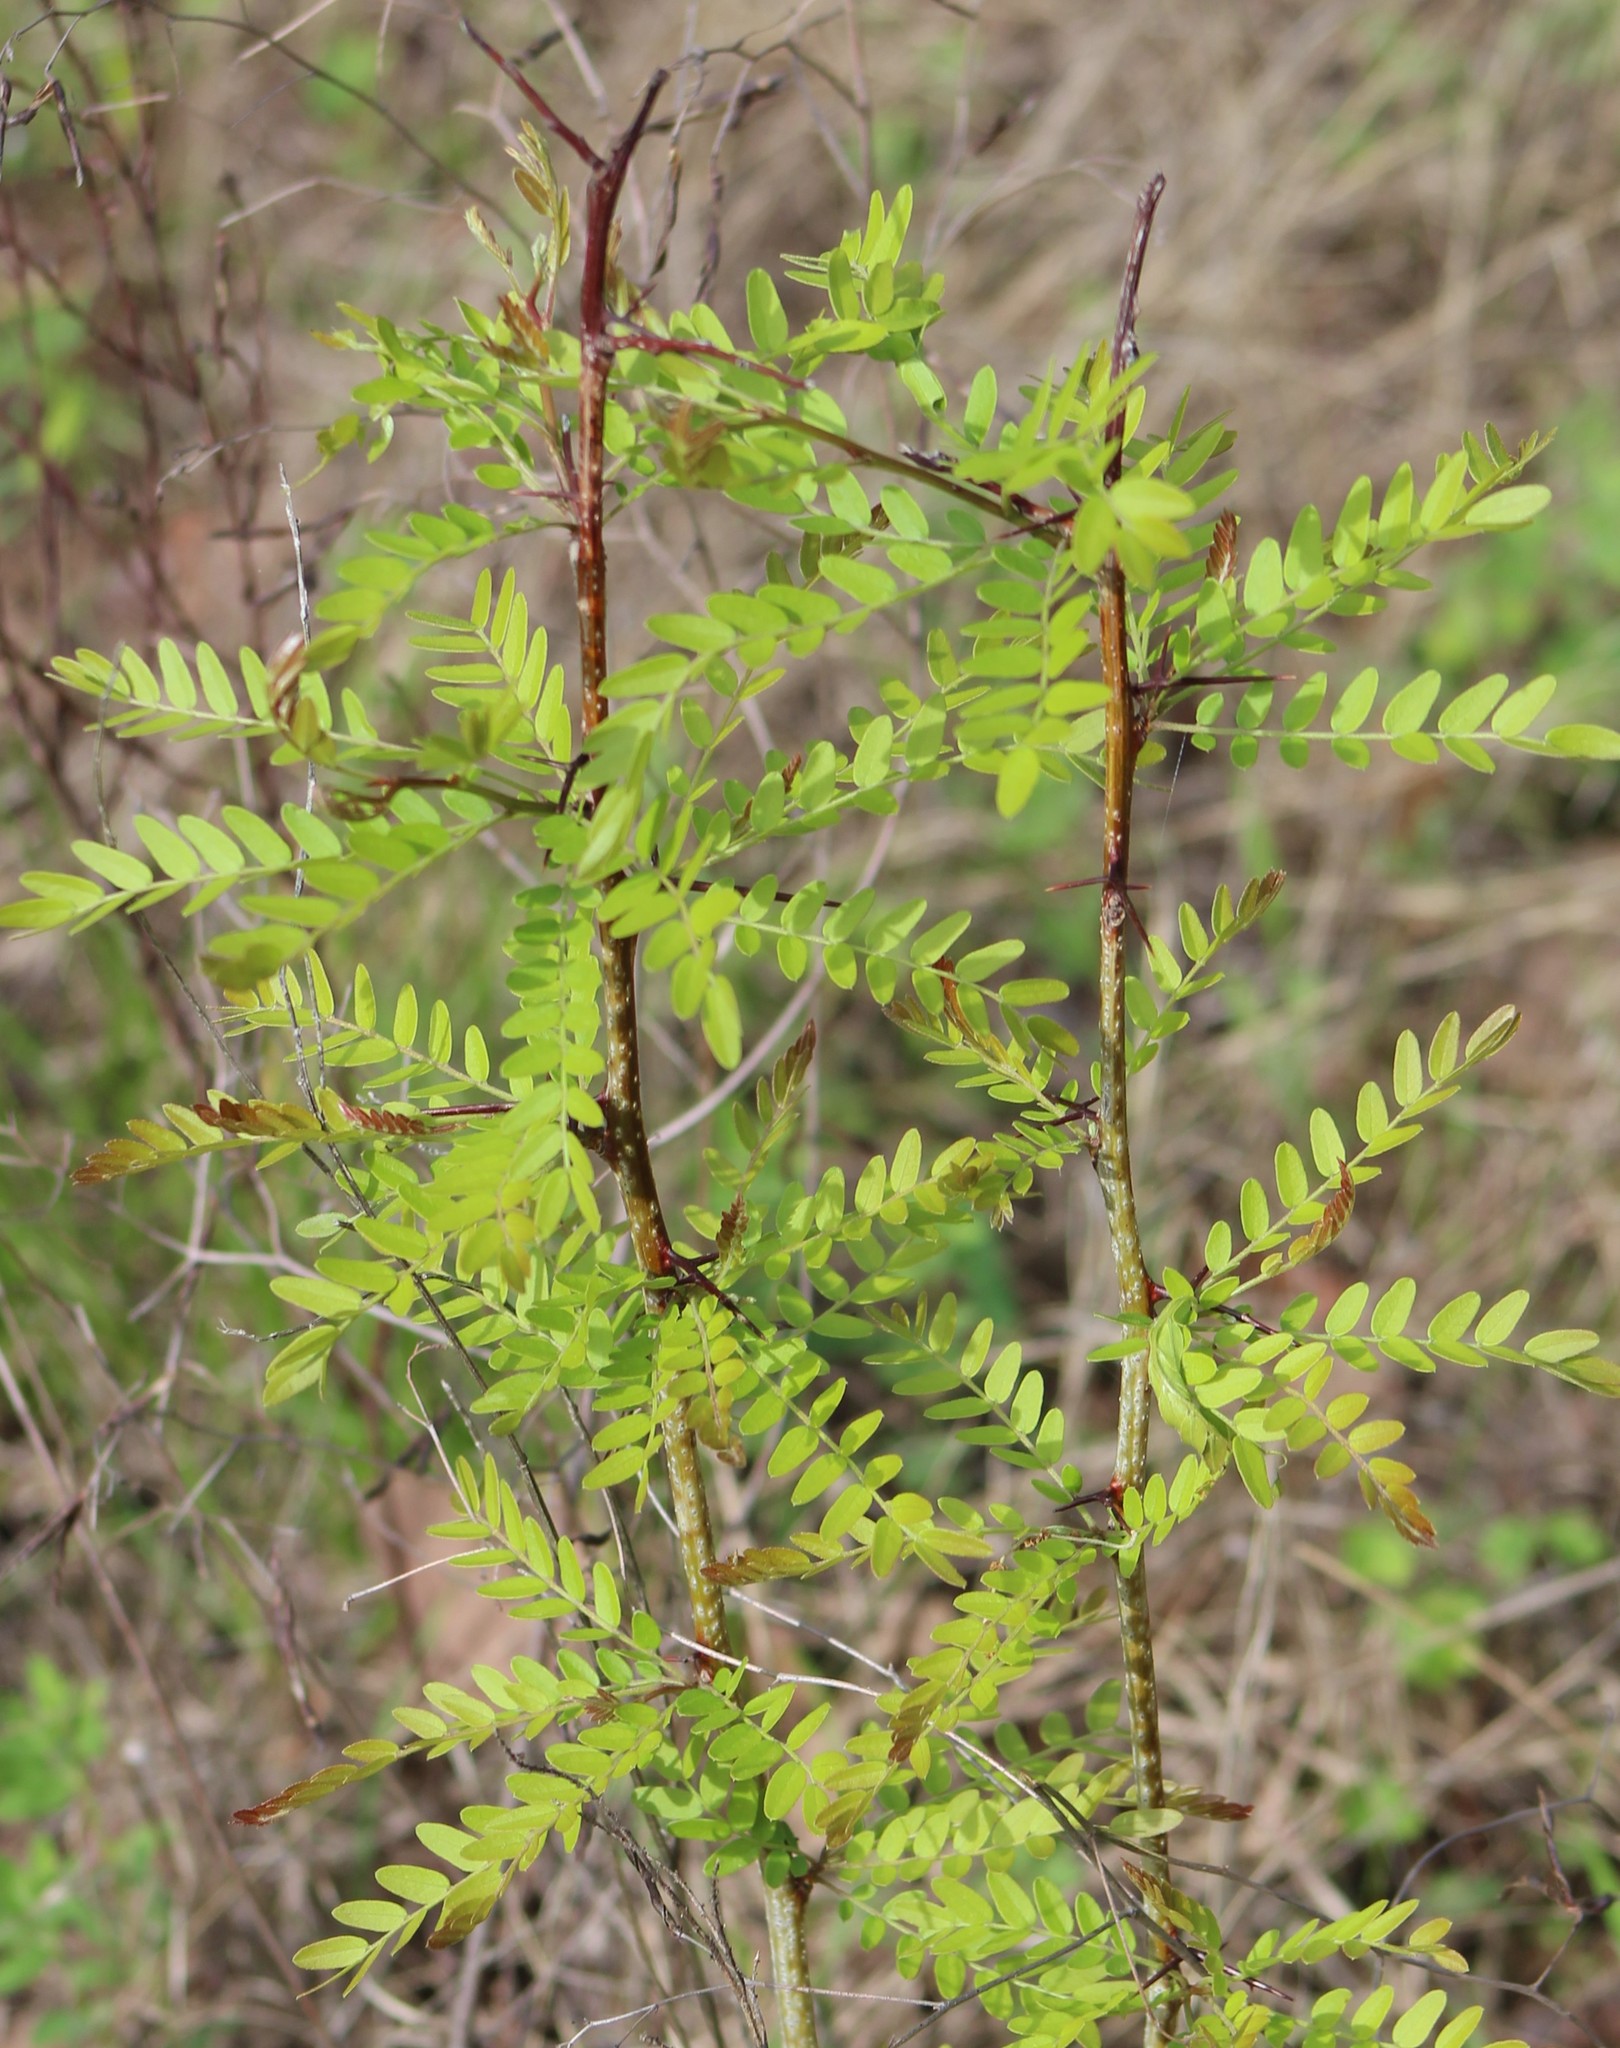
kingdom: Plantae
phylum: Tracheophyta
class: Magnoliopsida
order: Fabales
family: Fabaceae
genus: Gleditsia
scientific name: Gleditsia triacanthos
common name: Common honeylocust
